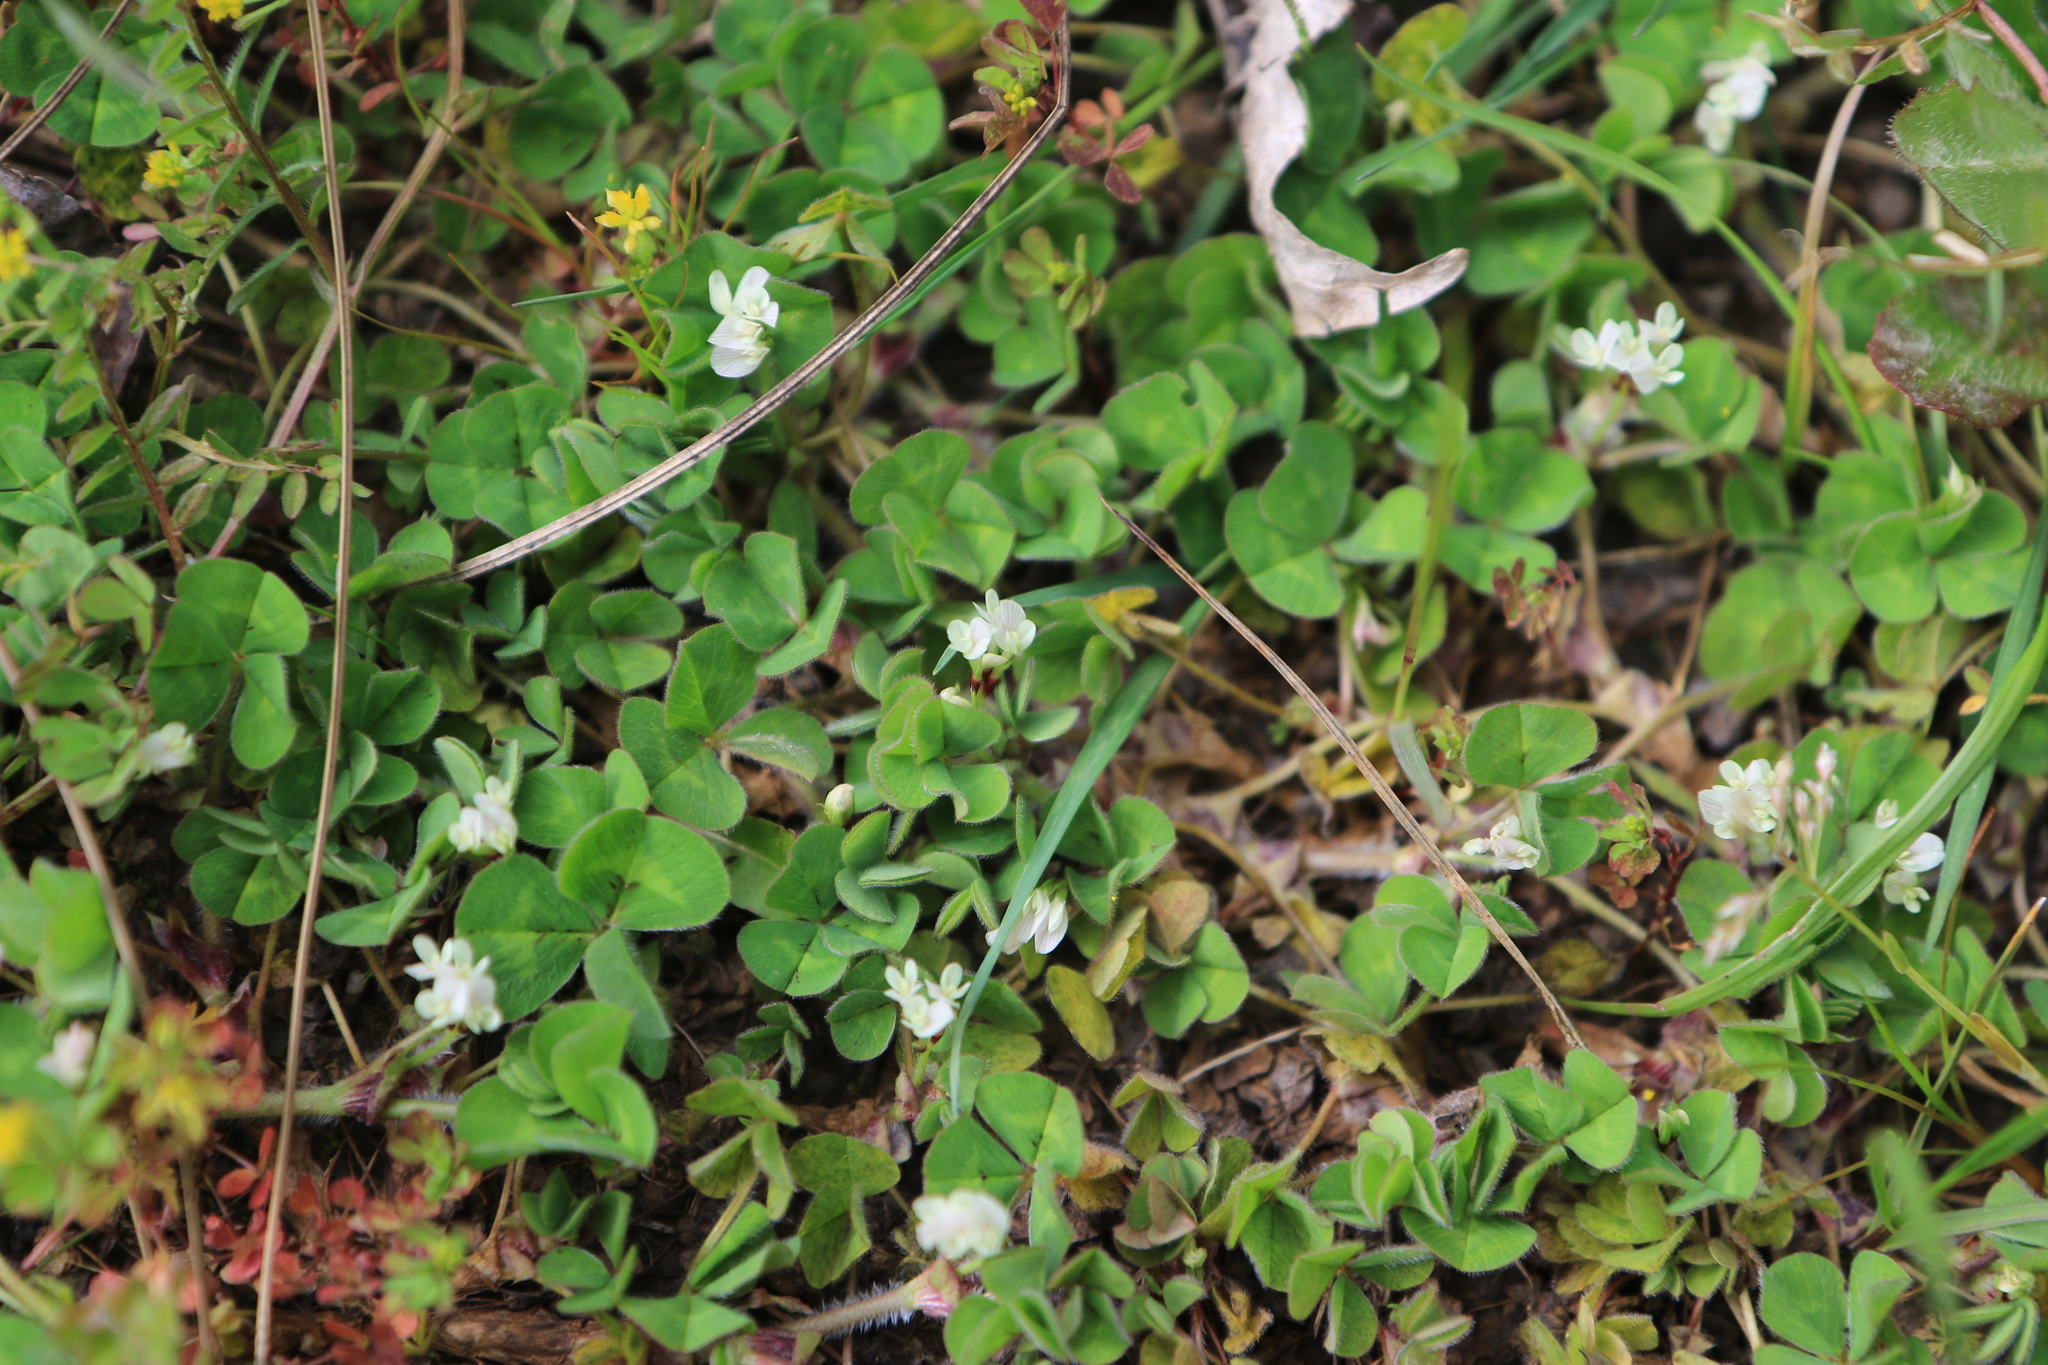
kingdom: Plantae
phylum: Tracheophyta
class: Magnoliopsida
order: Fabales
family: Fabaceae
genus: Trifolium
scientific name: Trifolium subterraneum
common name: Subterranean clover
